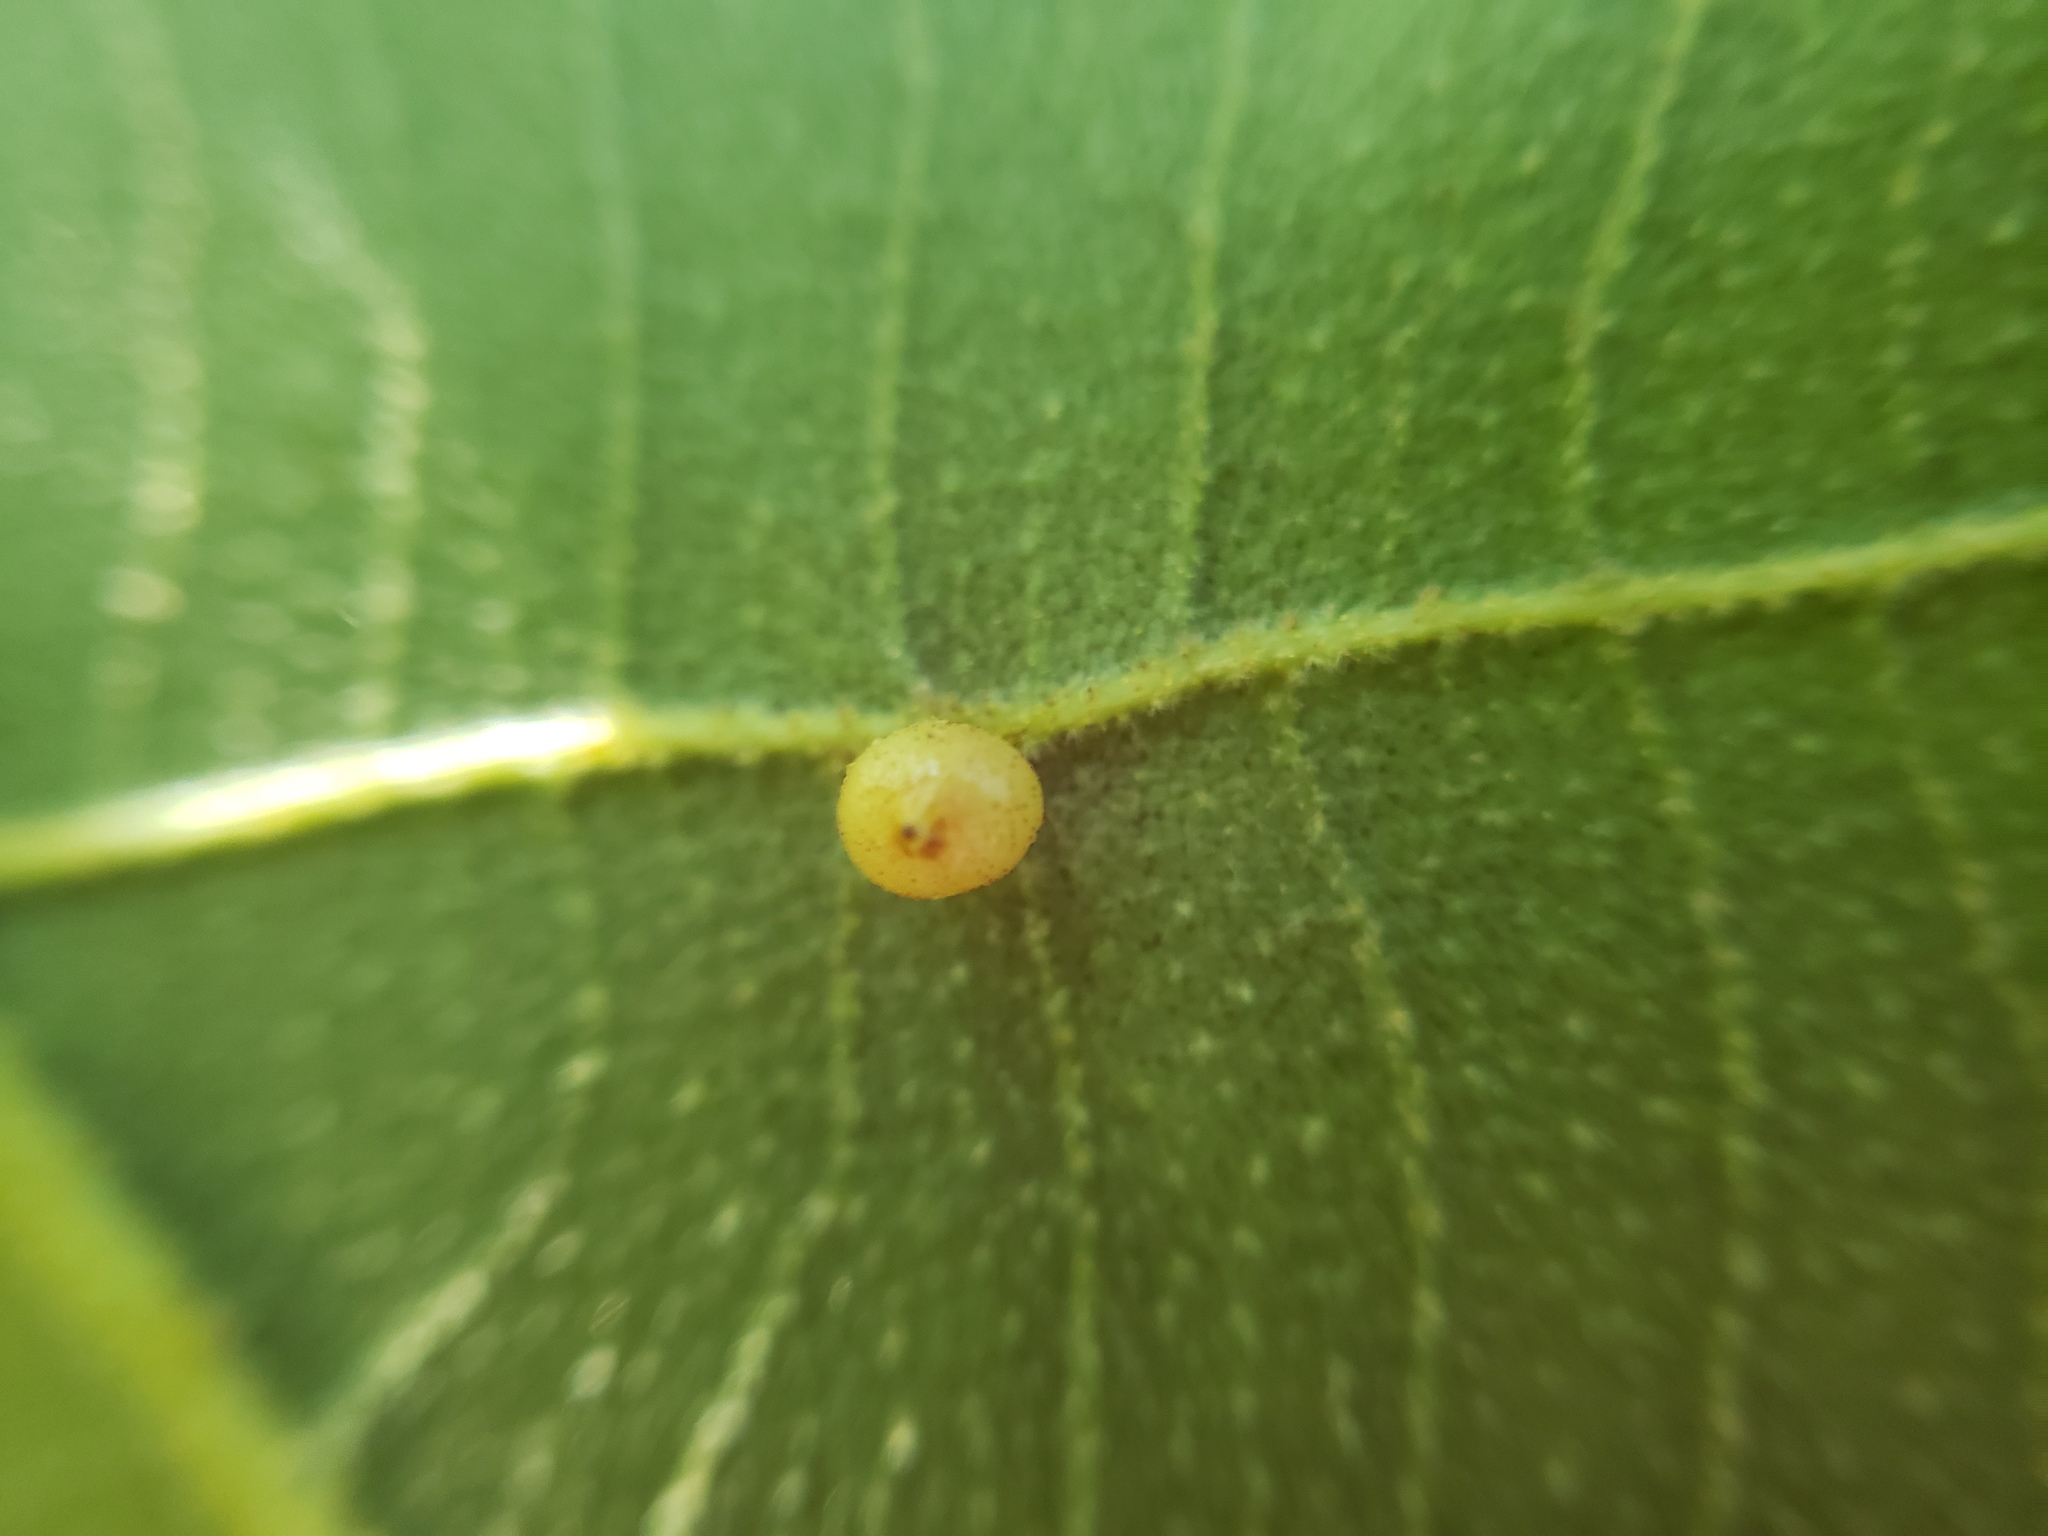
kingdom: Animalia
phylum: Arthropoda
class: Insecta
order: Diptera
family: Cecidomyiidae
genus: Caryomyia
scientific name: Caryomyia caryae
